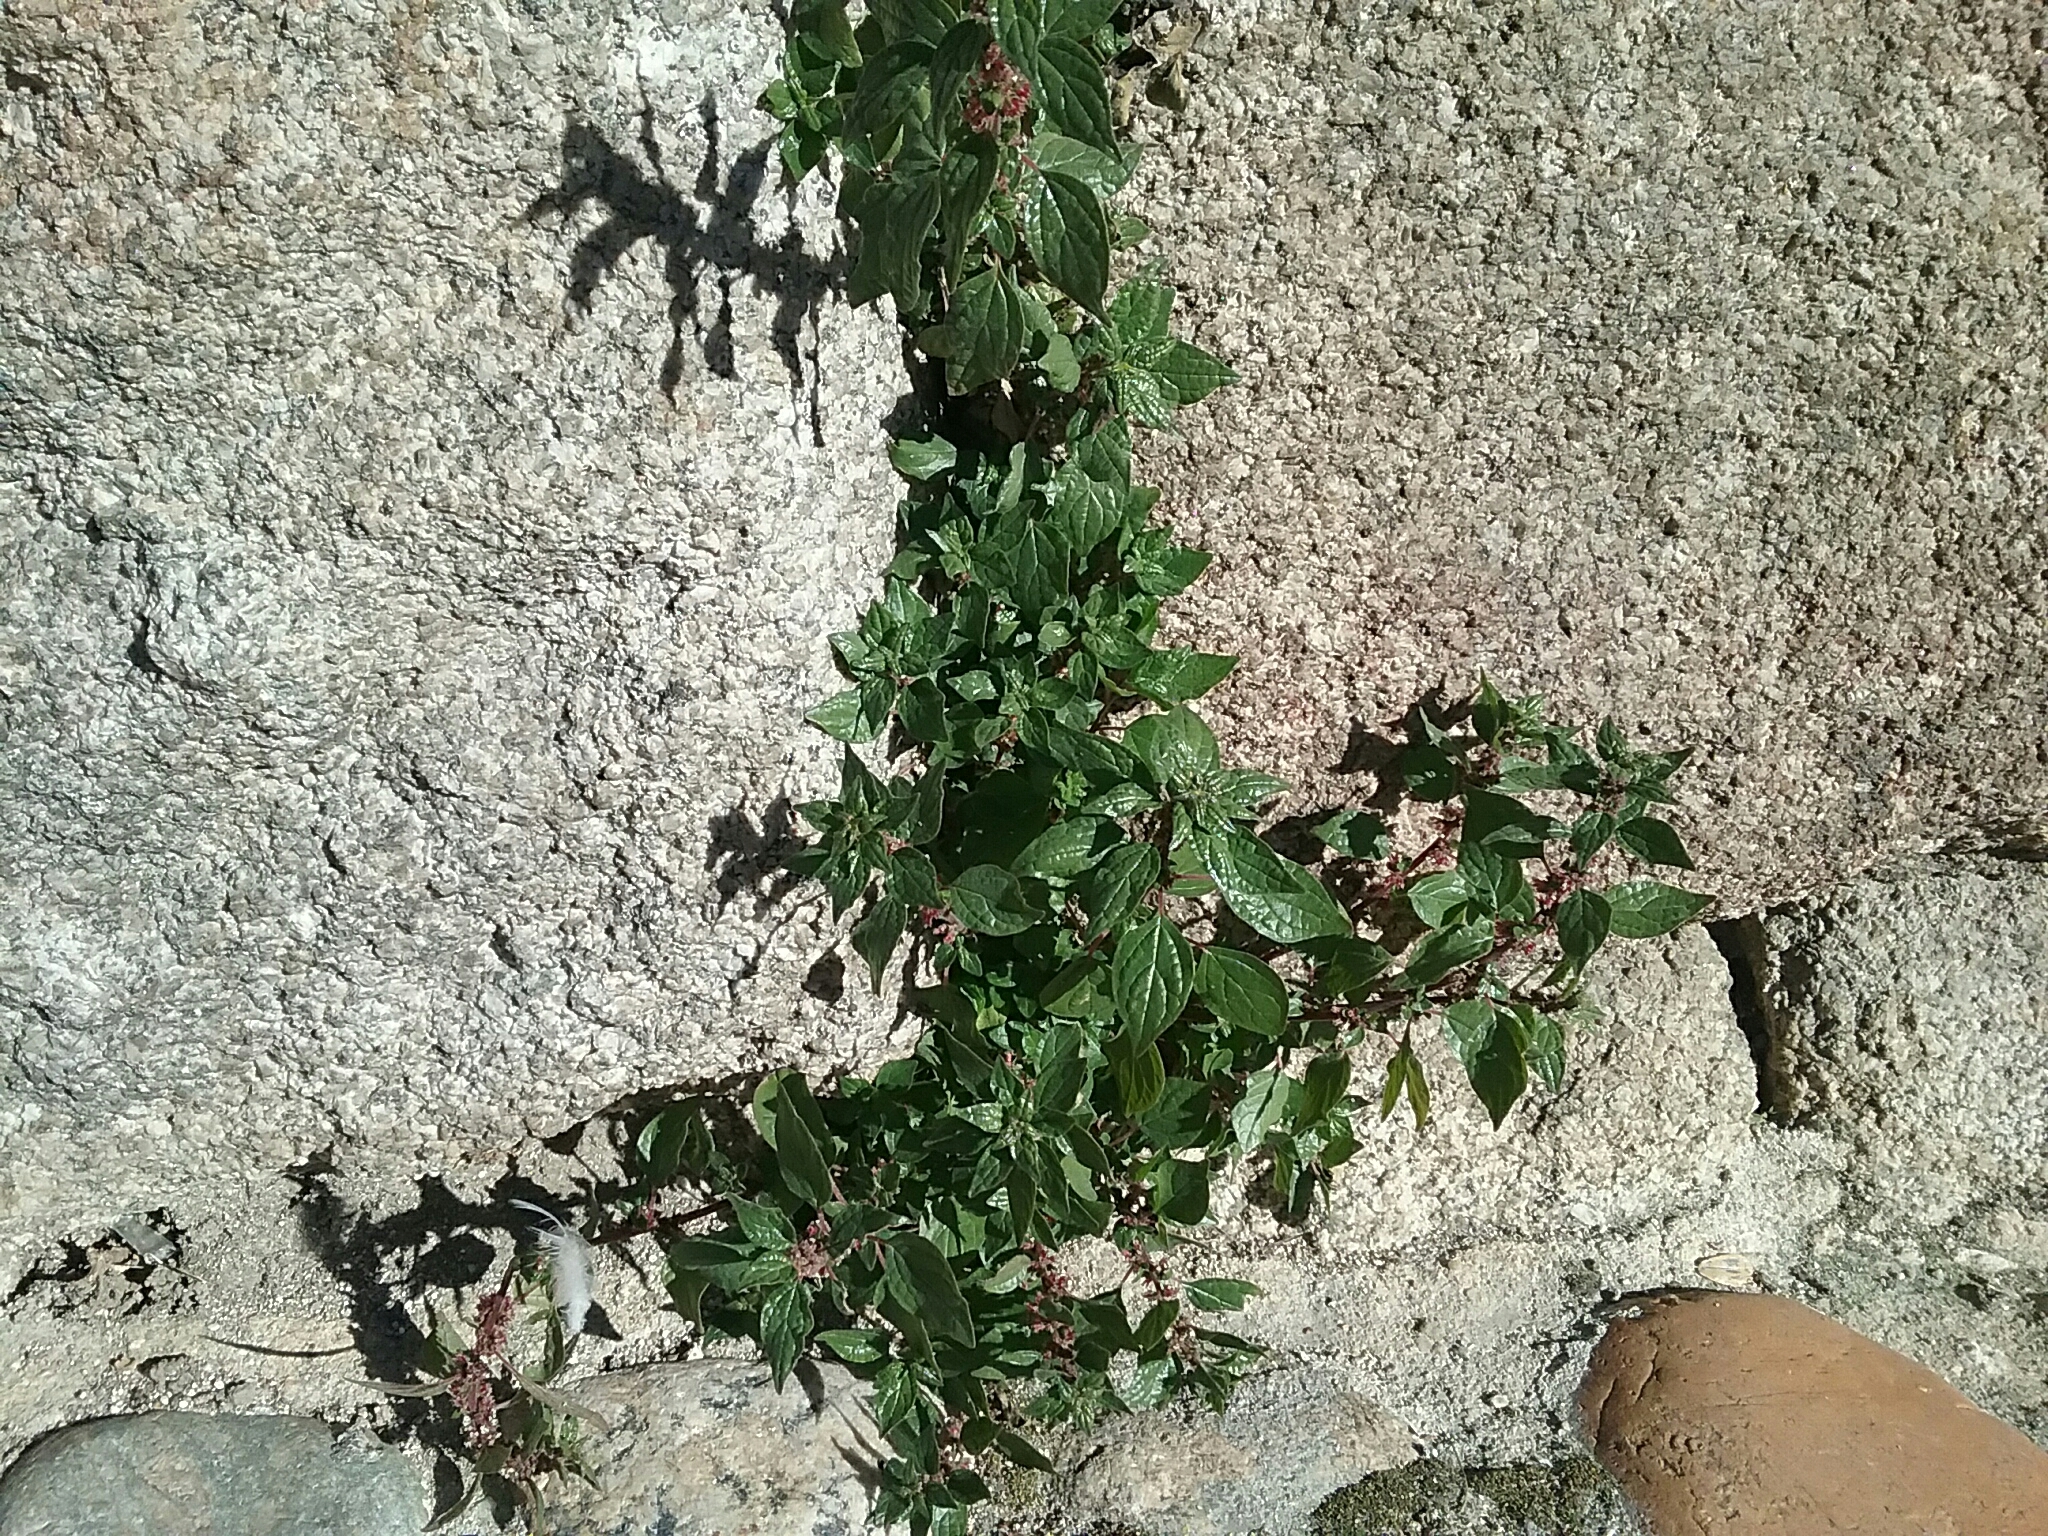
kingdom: Plantae
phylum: Tracheophyta
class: Magnoliopsida
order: Rosales
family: Urticaceae
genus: Parietaria
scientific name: Parietaria judaica
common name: Pellitory-of-the-wall
